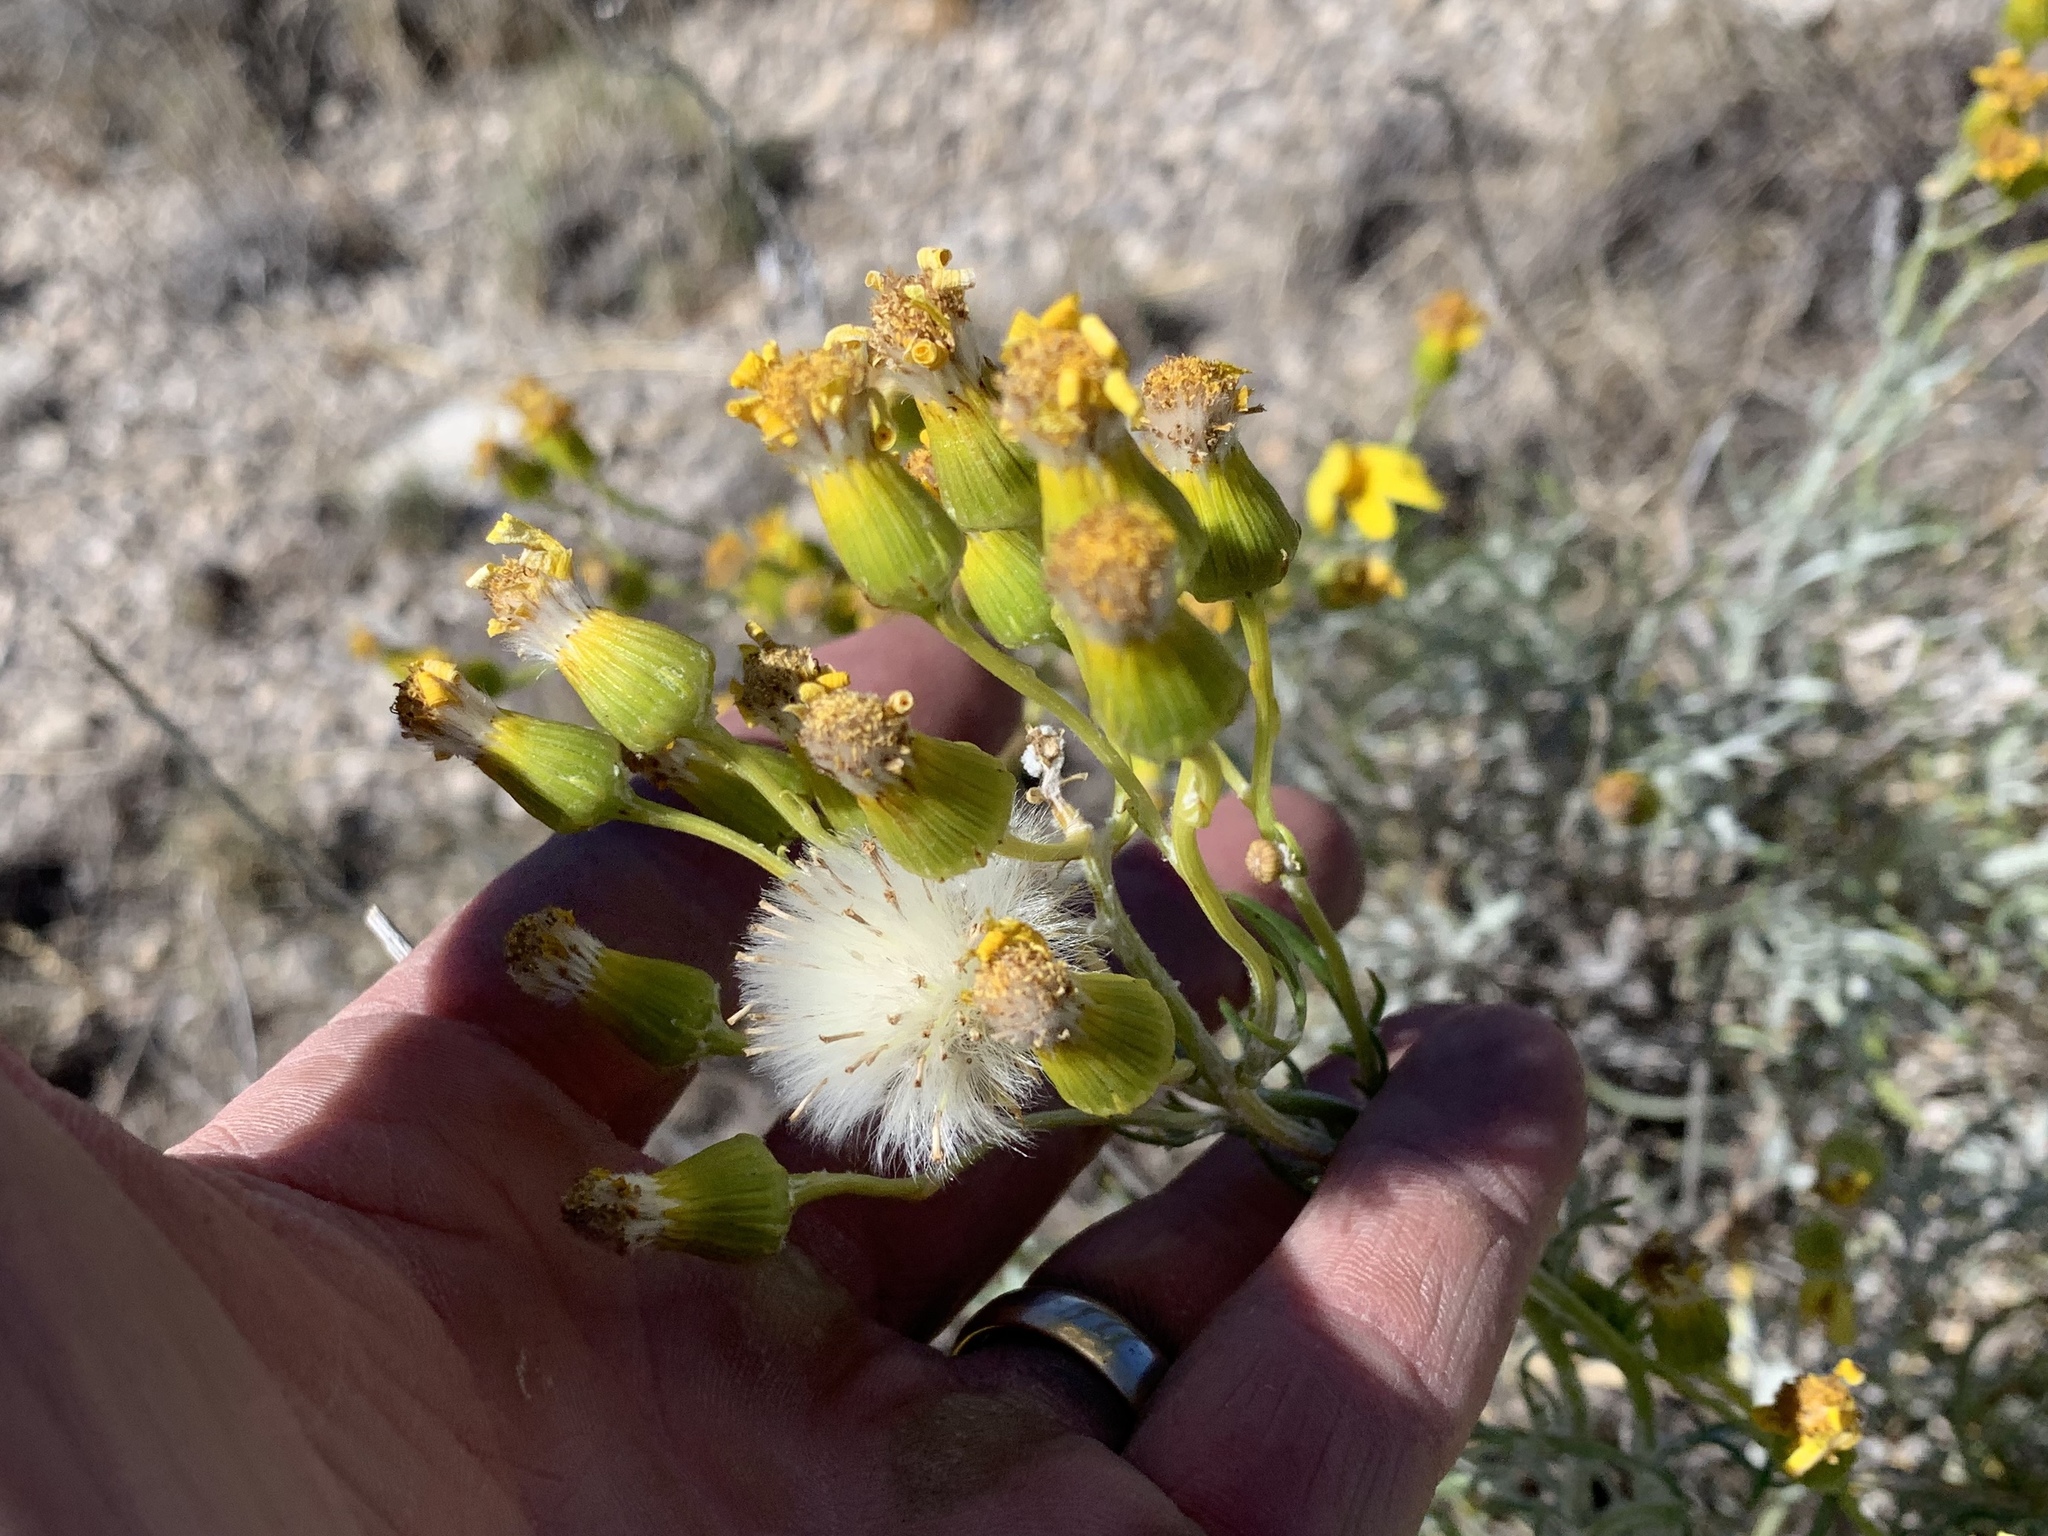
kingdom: Plantae
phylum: Tracheophyta
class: Magnoliopsida
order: Asterales
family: Asteraceae
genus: Senecio
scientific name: Senecio flaccidus
